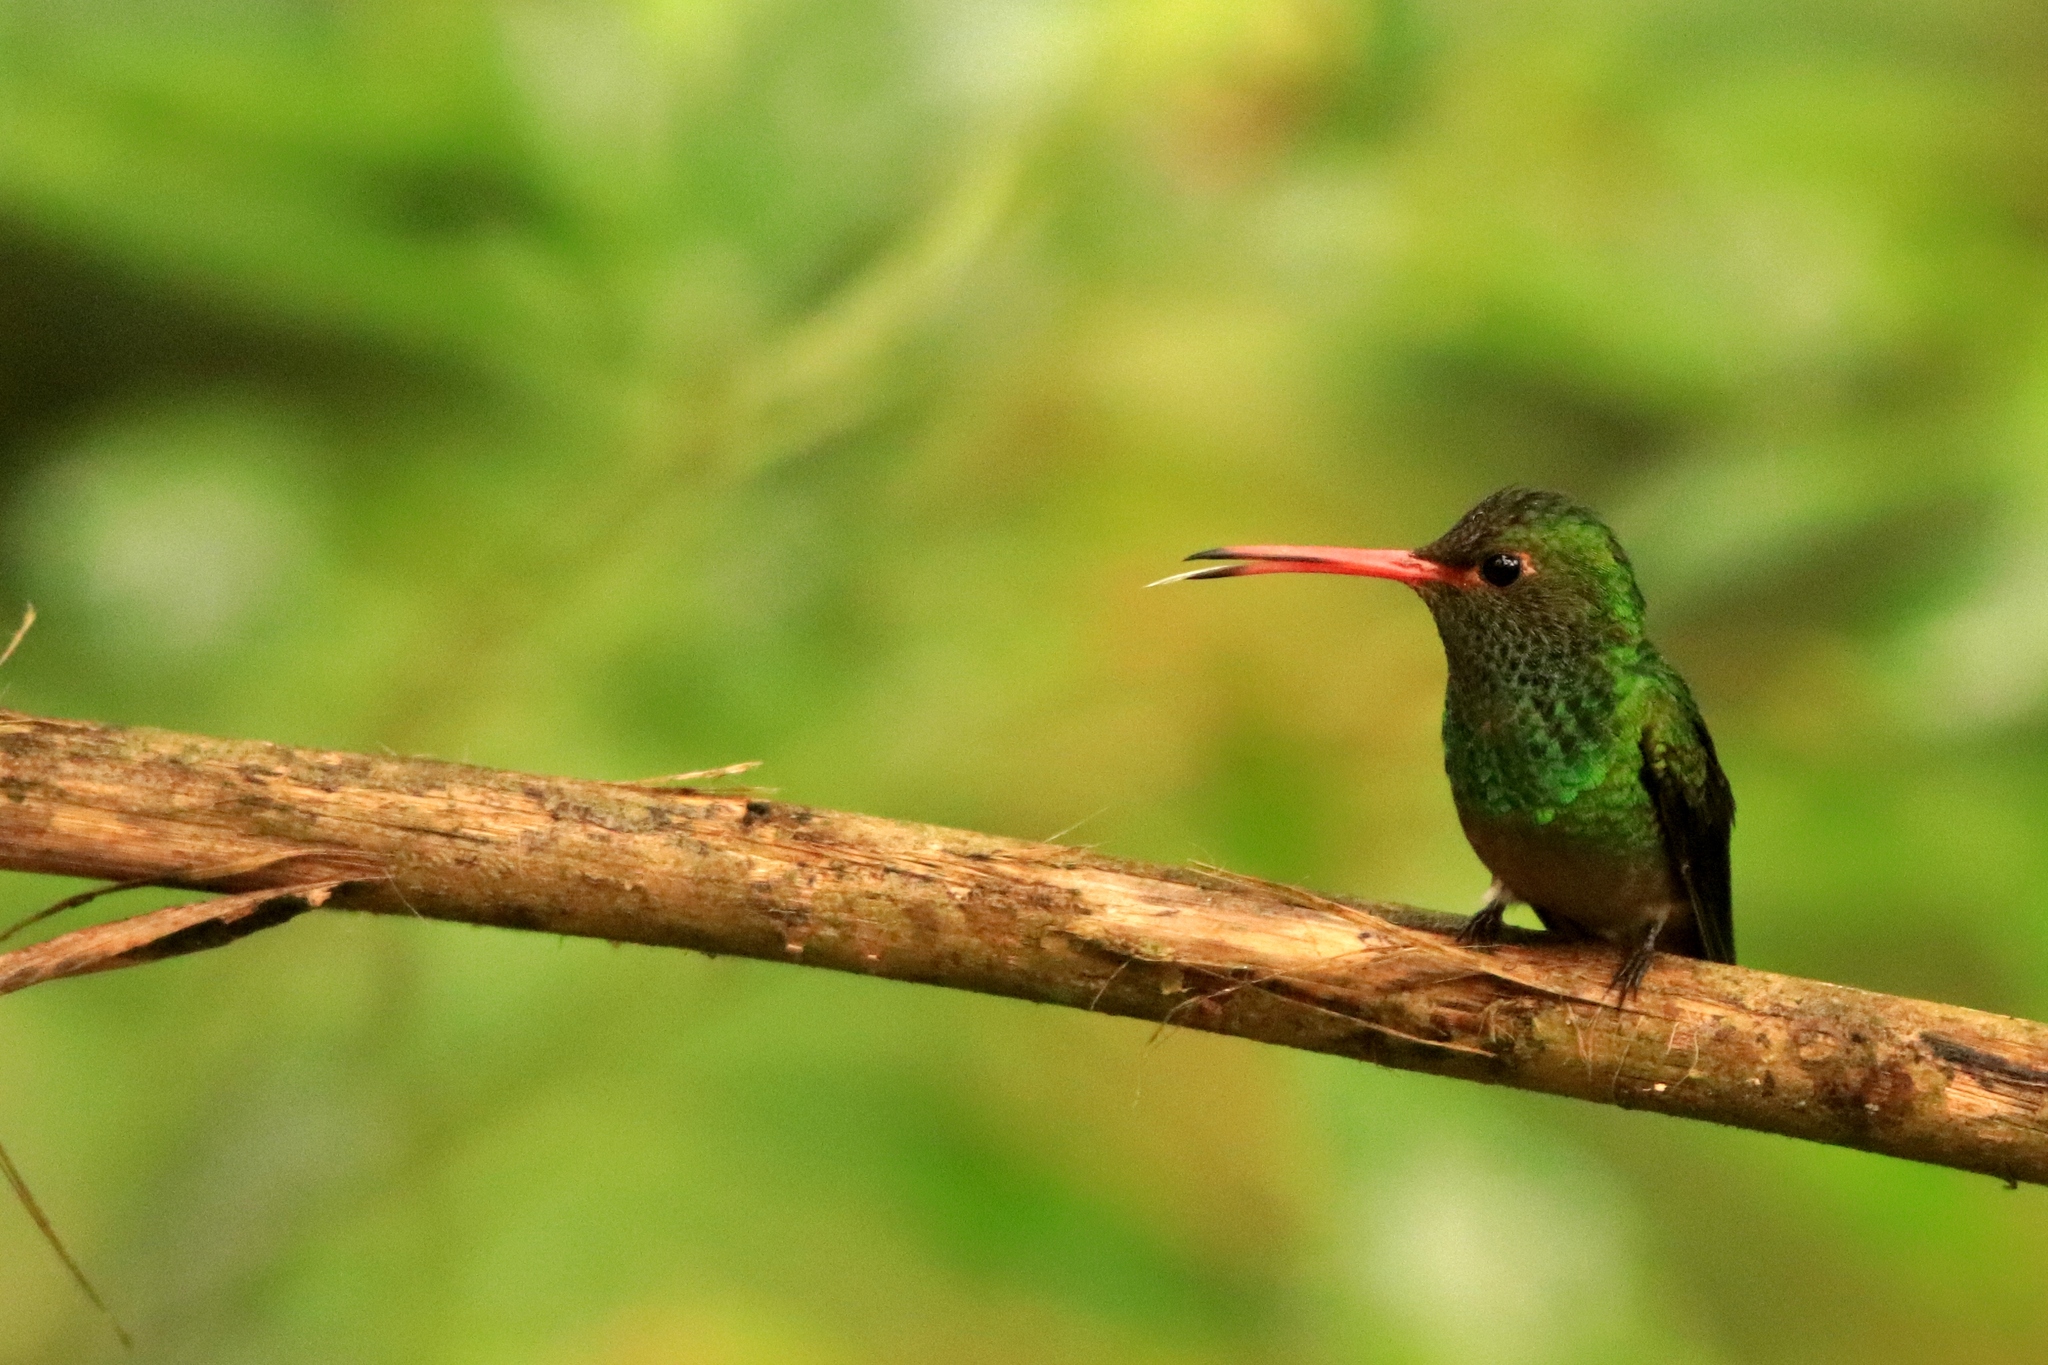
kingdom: Animalia
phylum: Chordata
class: Aves
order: Apodiformes
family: Trochilidae
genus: Amazilia
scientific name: Amazilia tzacatl
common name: Rufous-tailed hummingbird
